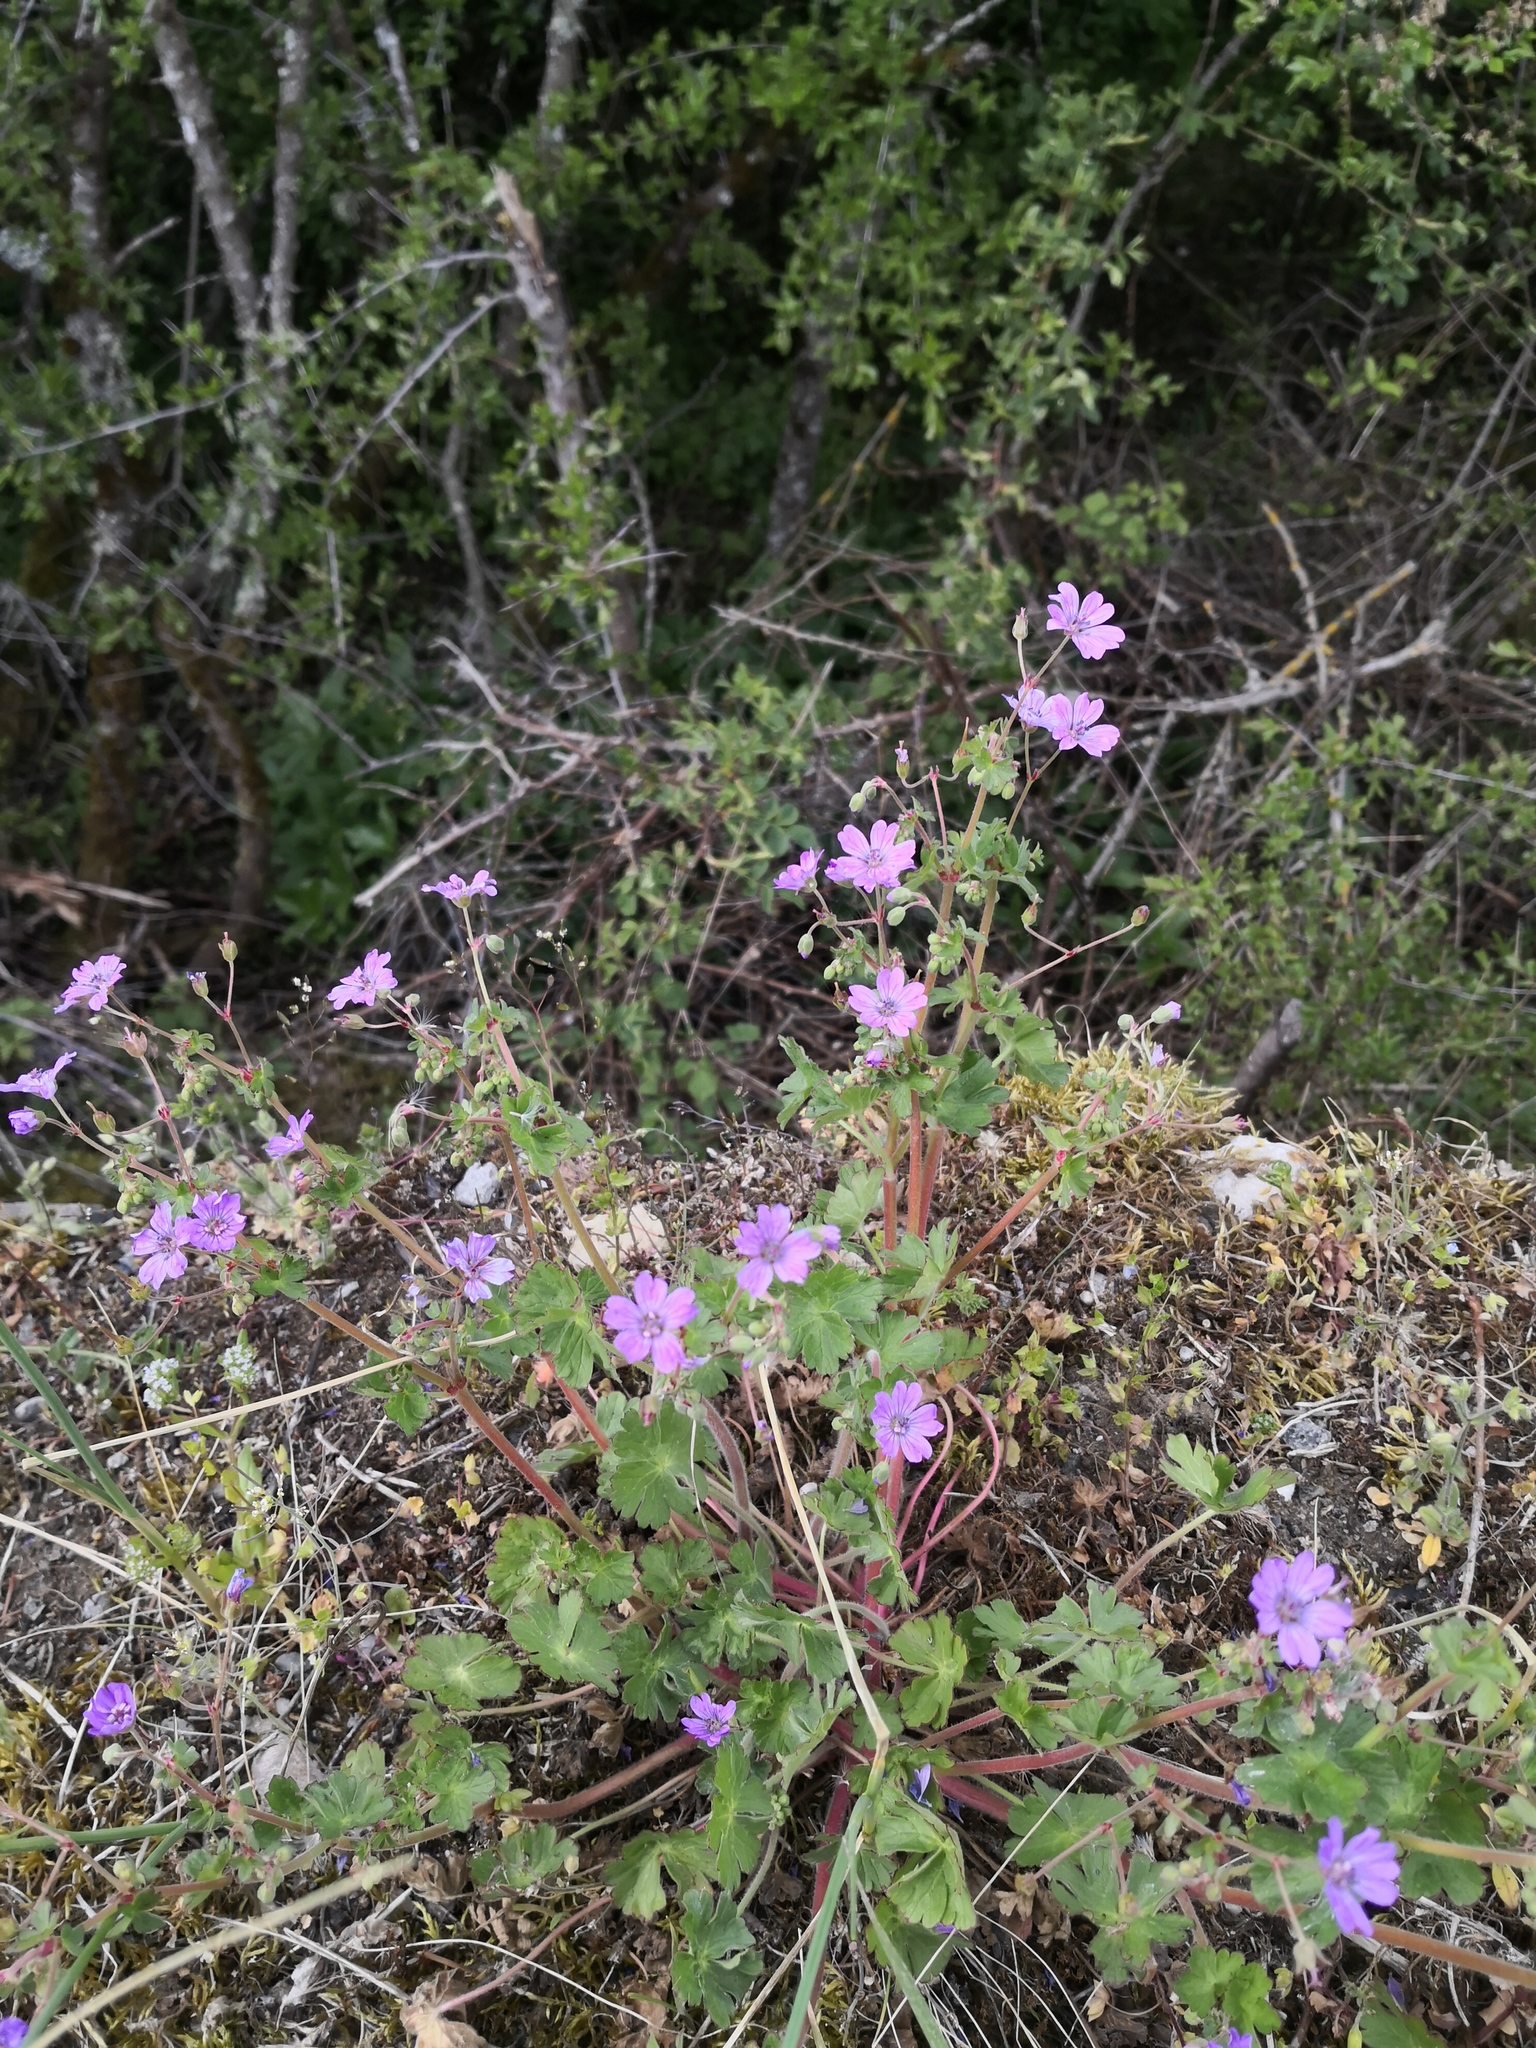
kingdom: Plantae
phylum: Tracheophyta
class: Magnoliopsida
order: Geraniales
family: Geraniaceae
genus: Geranium
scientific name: Geranium pyrenaicum
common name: Hedgerow crane's-bill
